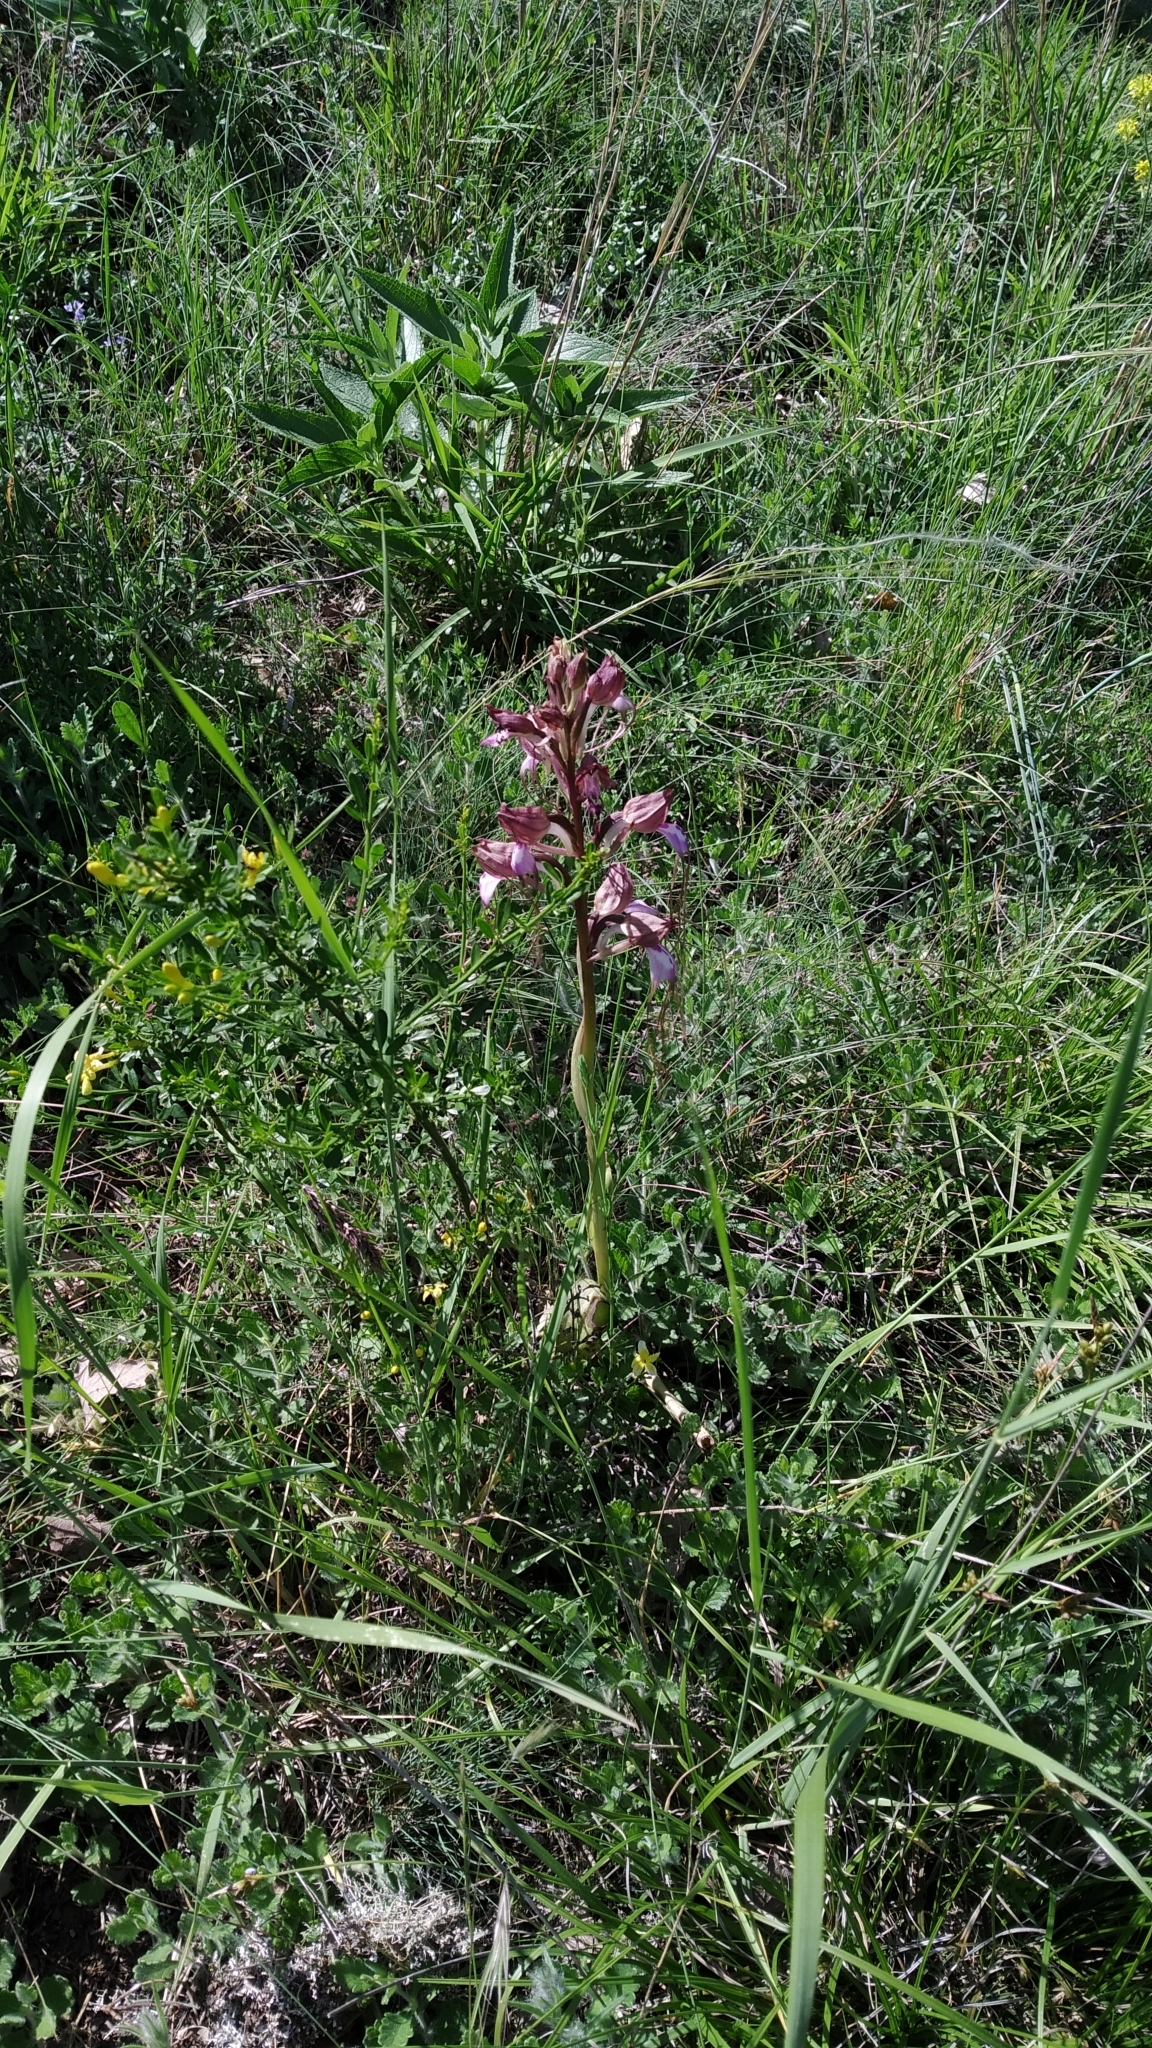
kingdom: Plantae
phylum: Tracheophyta
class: Liliopsida
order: Asparagales
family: Orchidaceae
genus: Himantoglossum
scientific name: Himantoglossum comperianum
